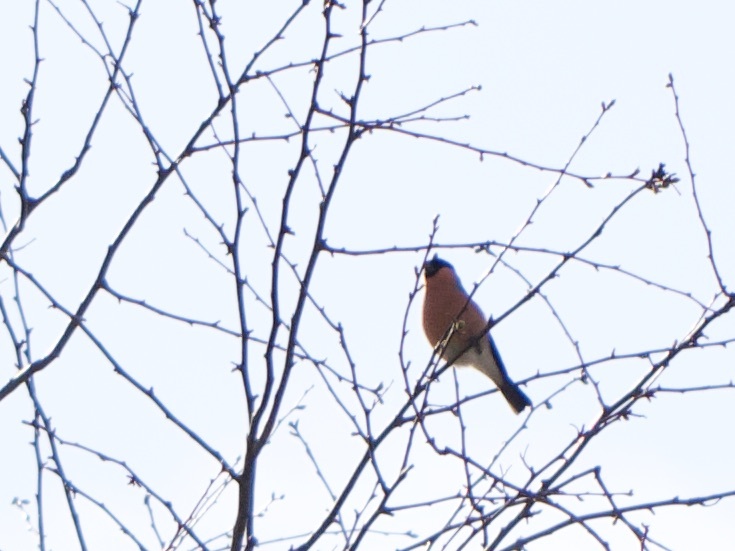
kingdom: Animalia
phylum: Chordata
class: Aves
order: Passeriformes
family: Fringillidae
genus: Pyrrhula
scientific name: Pyrrhula pyrrhula
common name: Eurasian bullfinch
